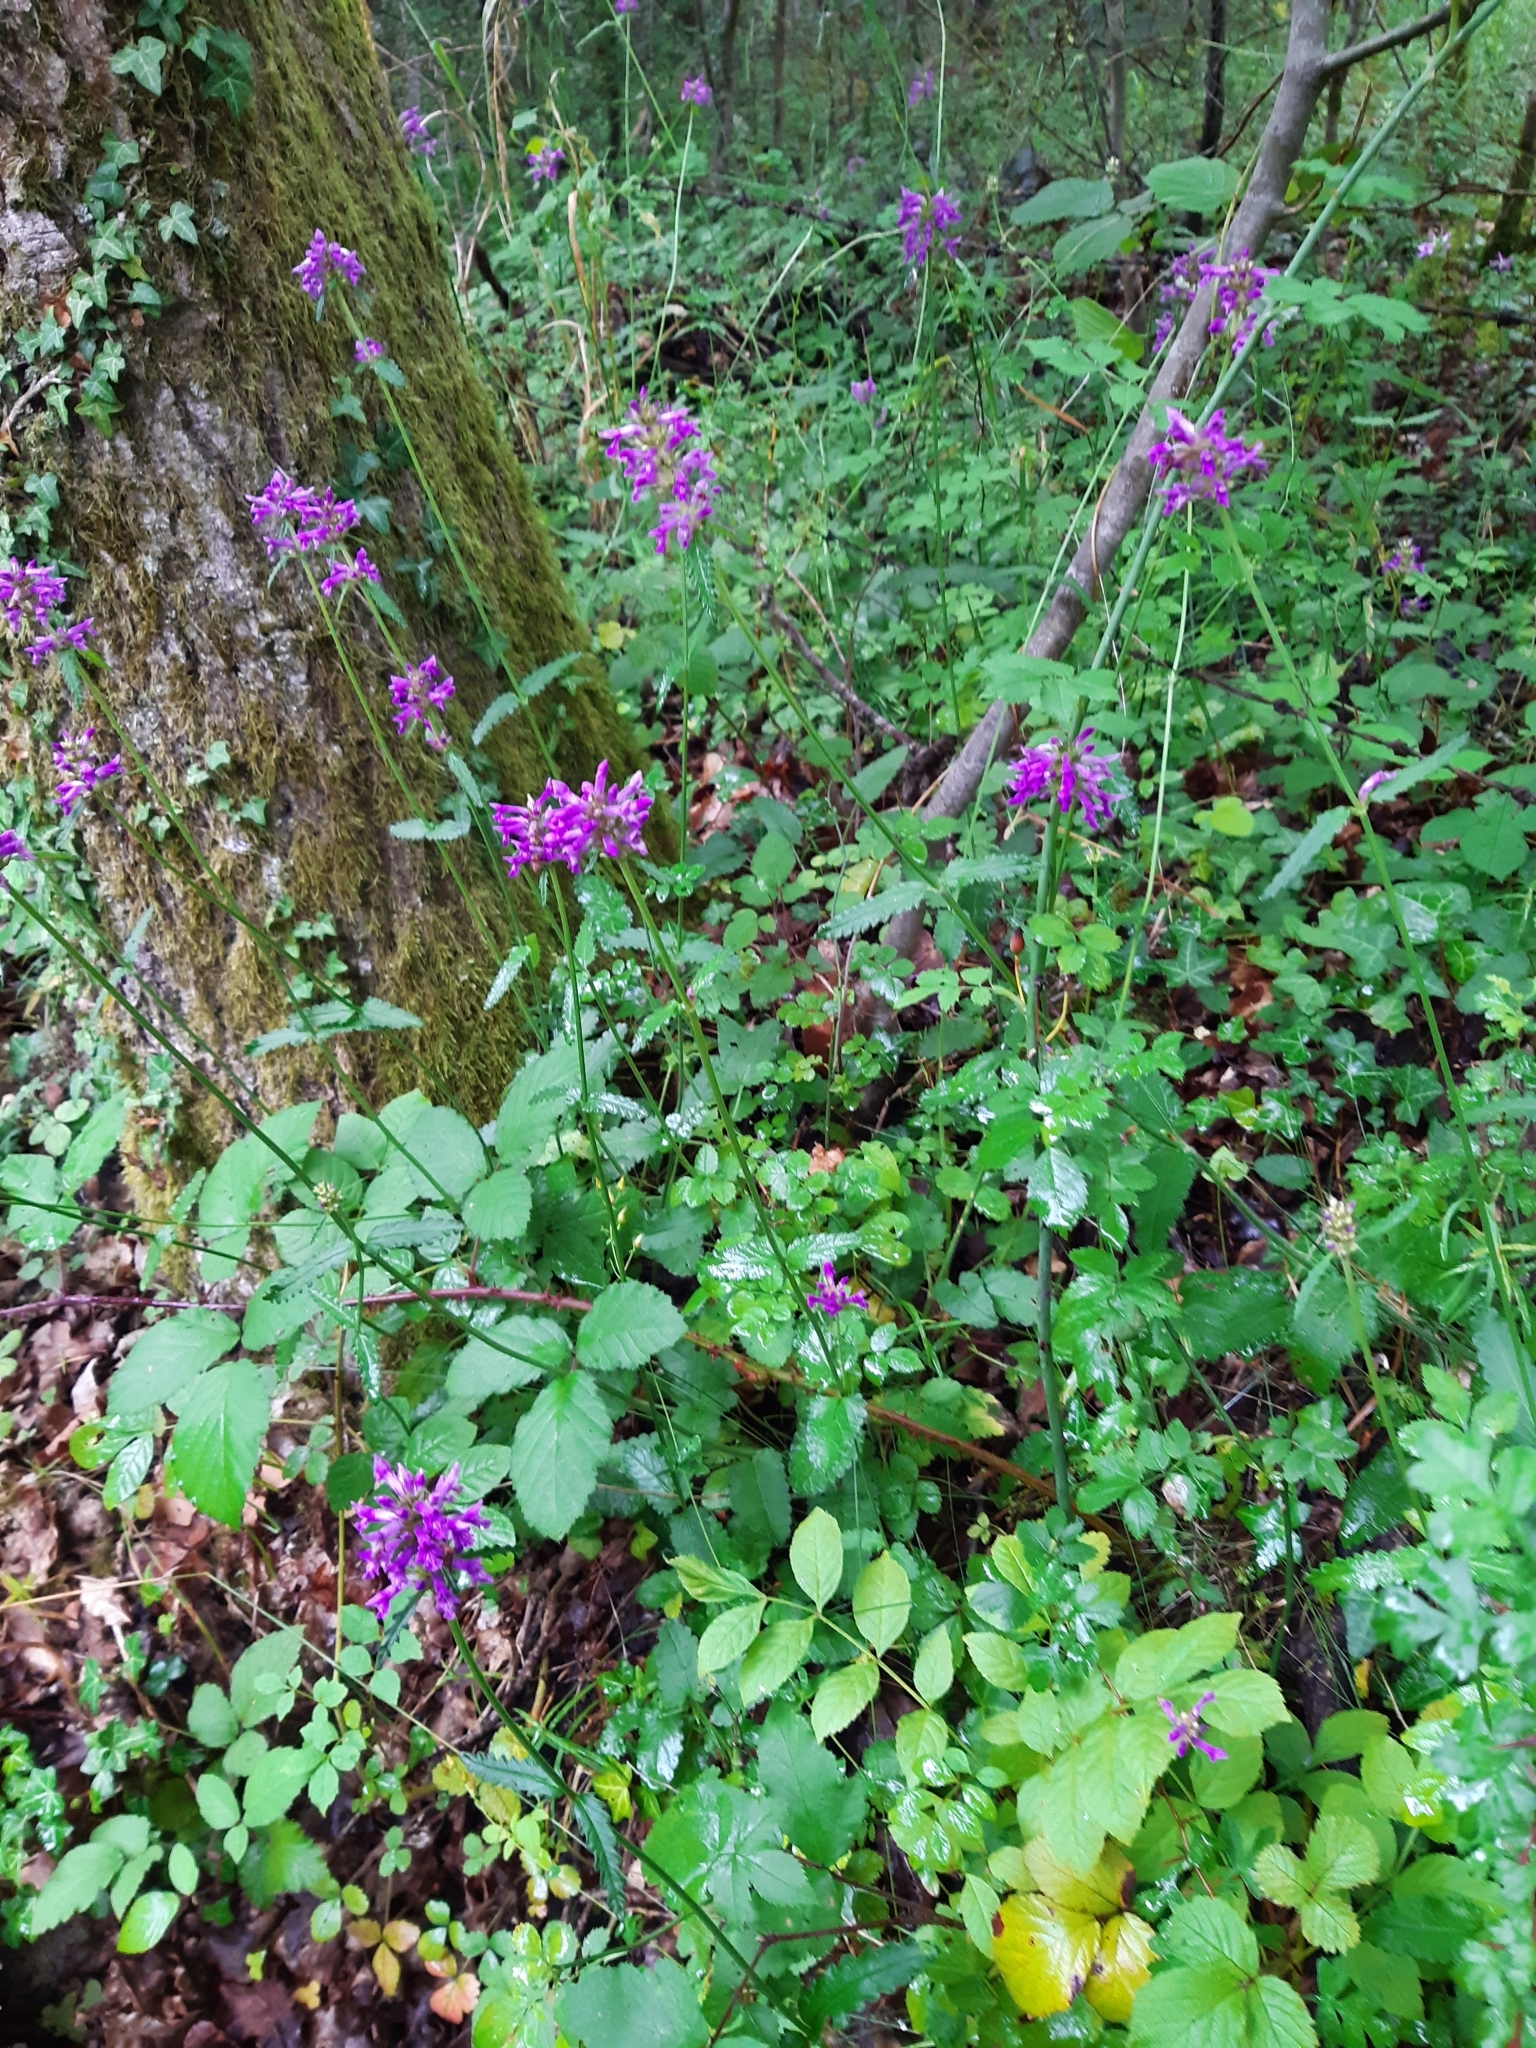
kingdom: Plantae
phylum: Tracheophyta
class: Magnoliopsida
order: Lamiales
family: Lamiaceae
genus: Betonica
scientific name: Betonica officinalis
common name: Bishop's-wort
